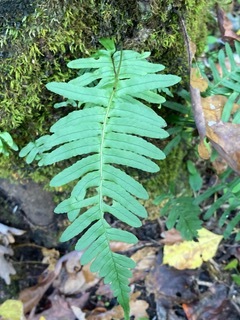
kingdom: Plantae
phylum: Tracheophyta
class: Polypodiopsida
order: Polypodiales
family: Polypodiaceae
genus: Polypodium
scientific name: Polypodium appalachianum
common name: Appalachian polypody
